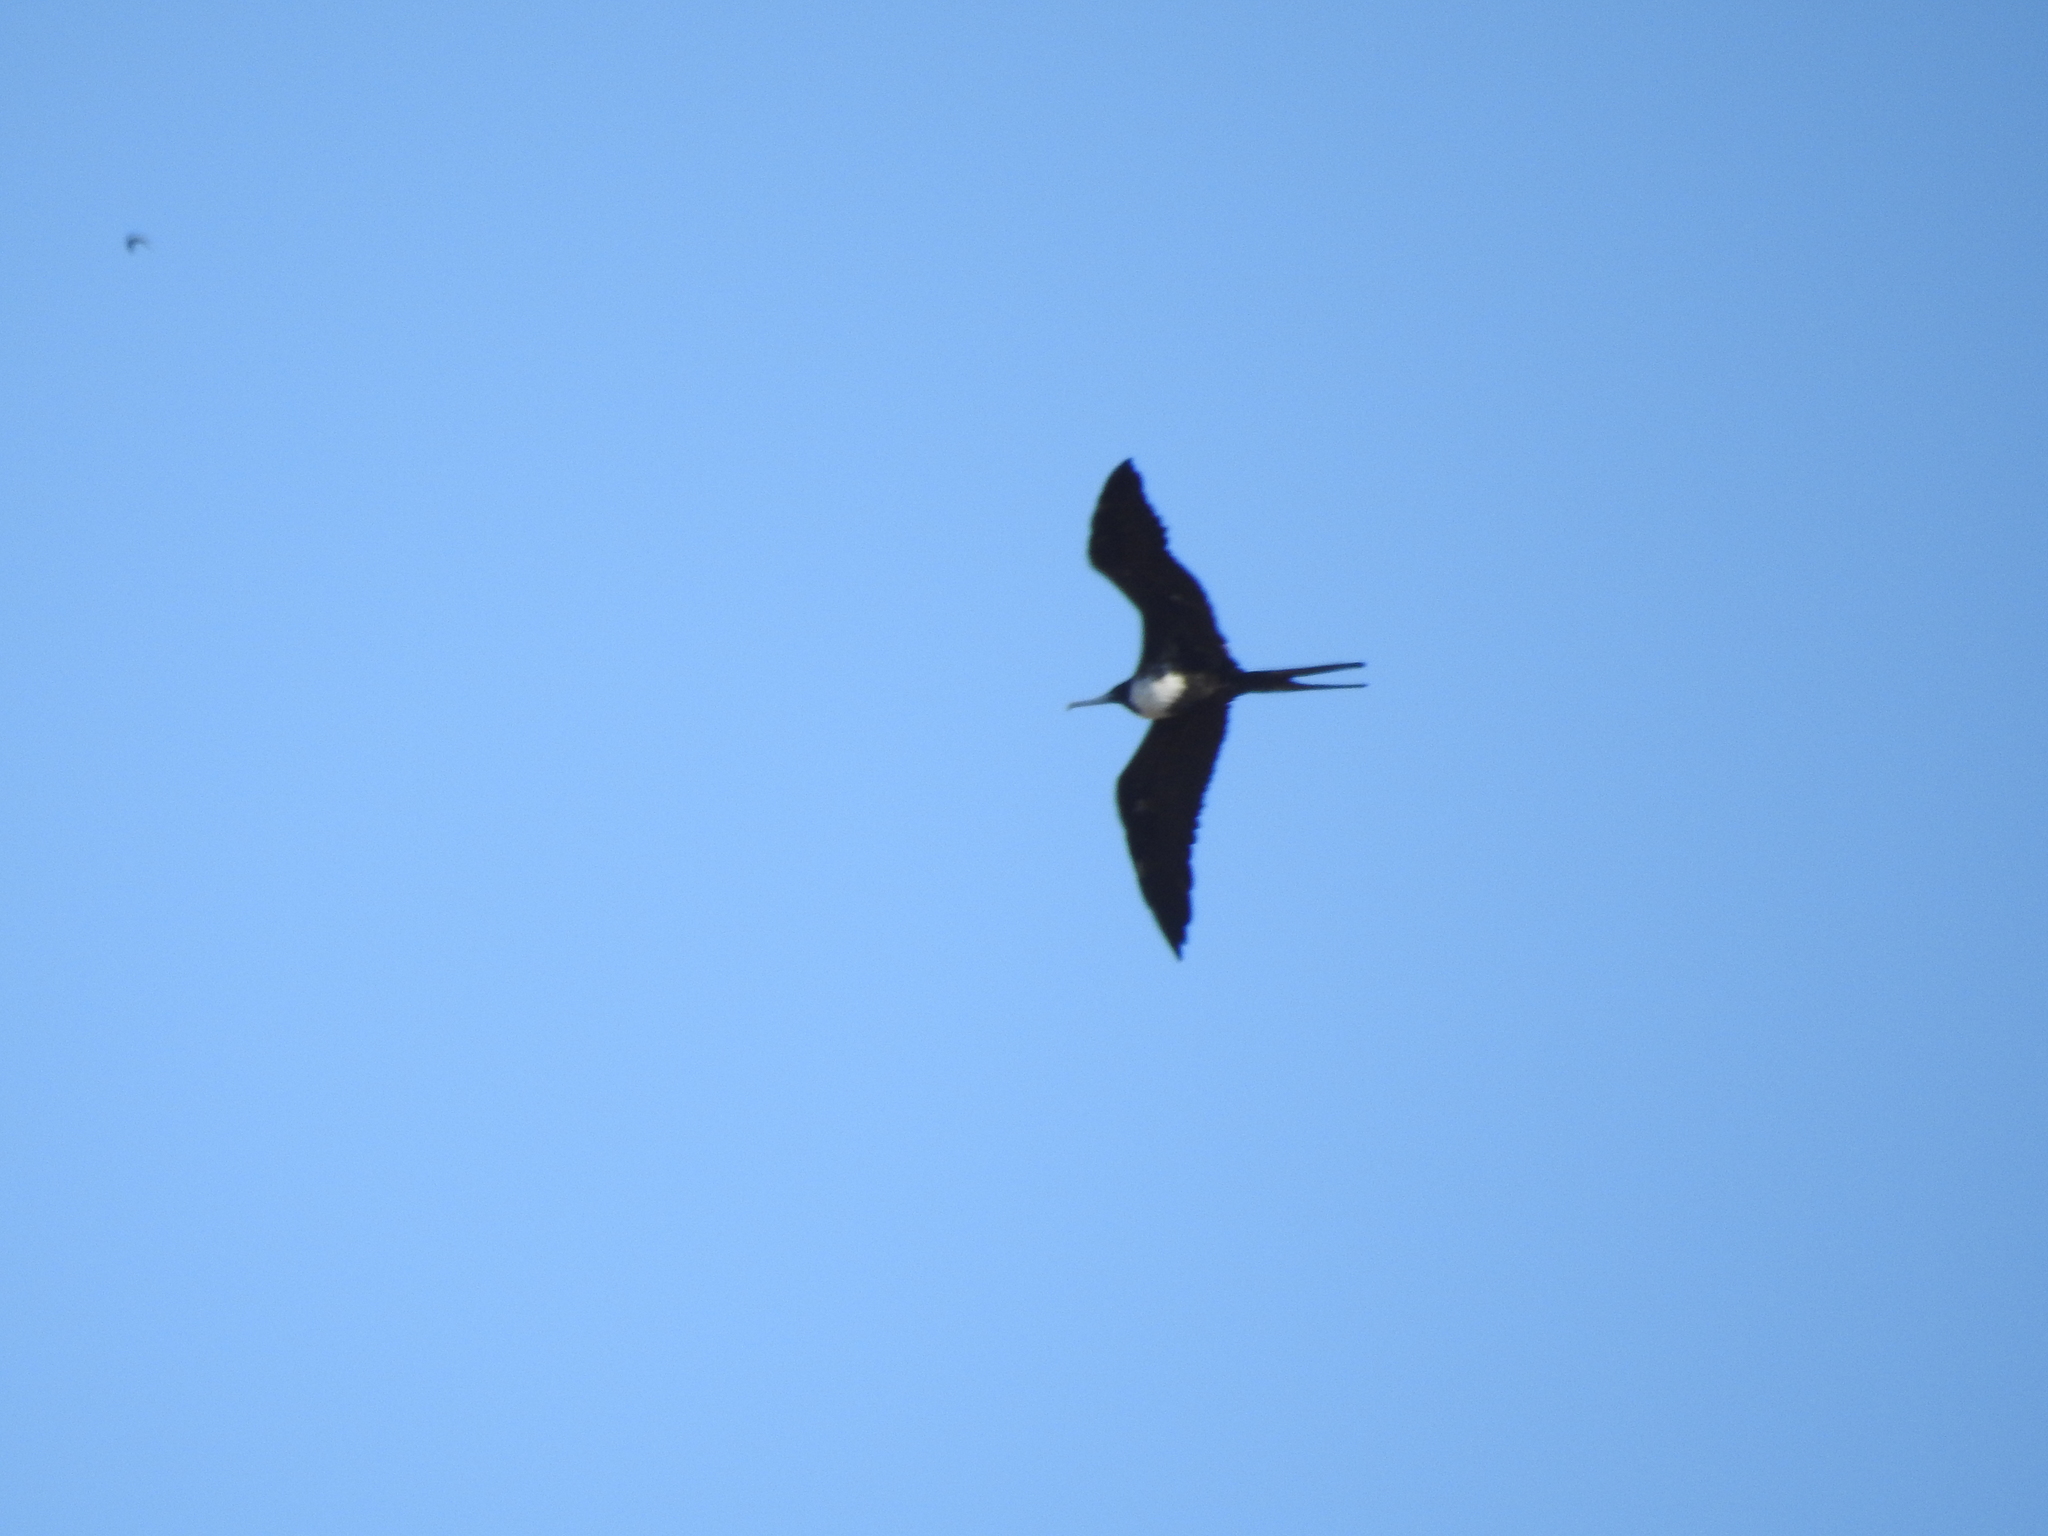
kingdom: Animalia
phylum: Chordata
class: Aves
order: Suliformes
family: Fregatidae
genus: Fregata
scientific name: Fregata magnificens
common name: Magnificent frigatebird
